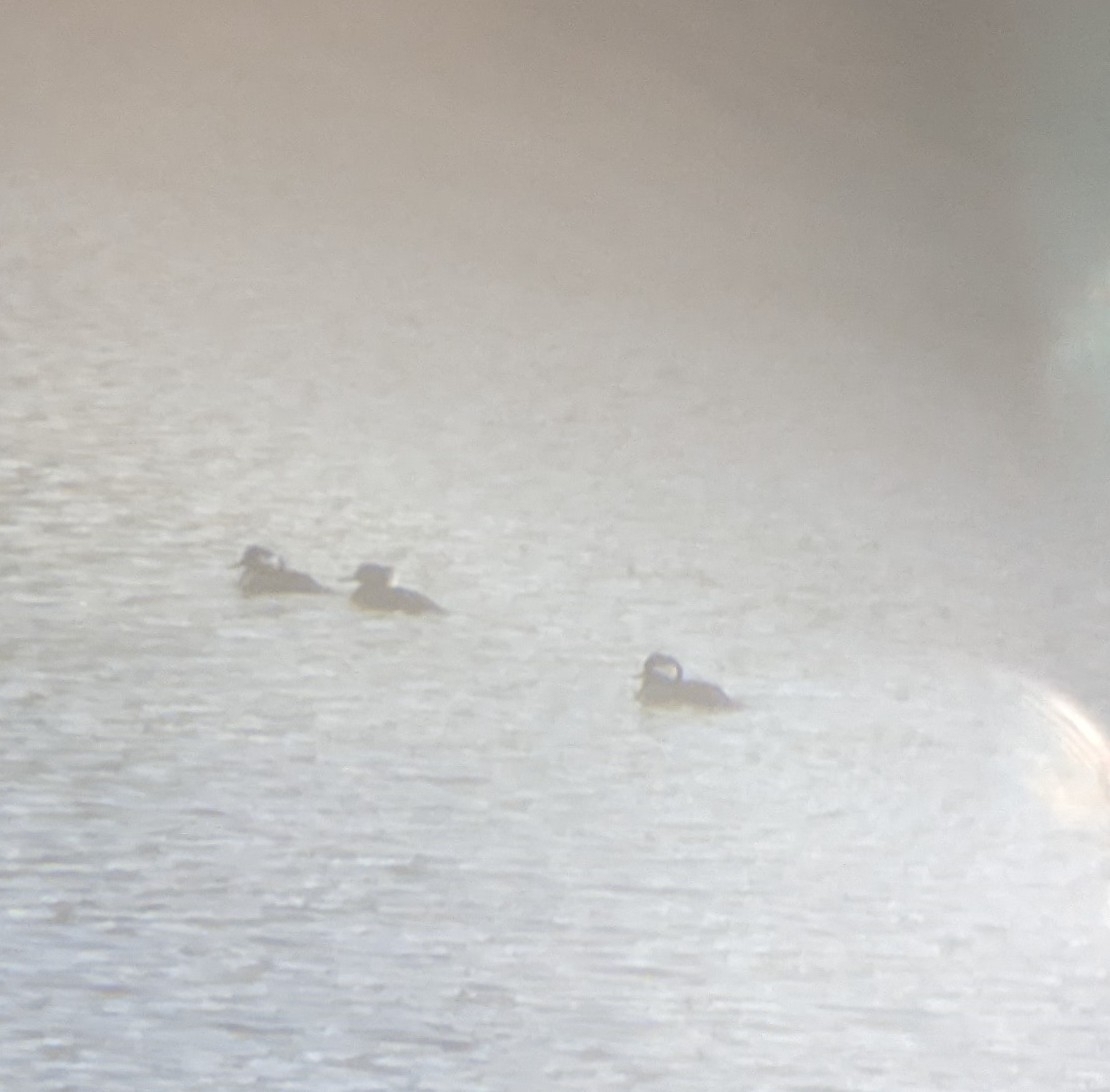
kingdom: Animalia
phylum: Chordata
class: Aves
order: Anseriformes
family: Anatidae
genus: Lophodytes
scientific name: Lophodytes cucullatus
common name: Hooded merganser
